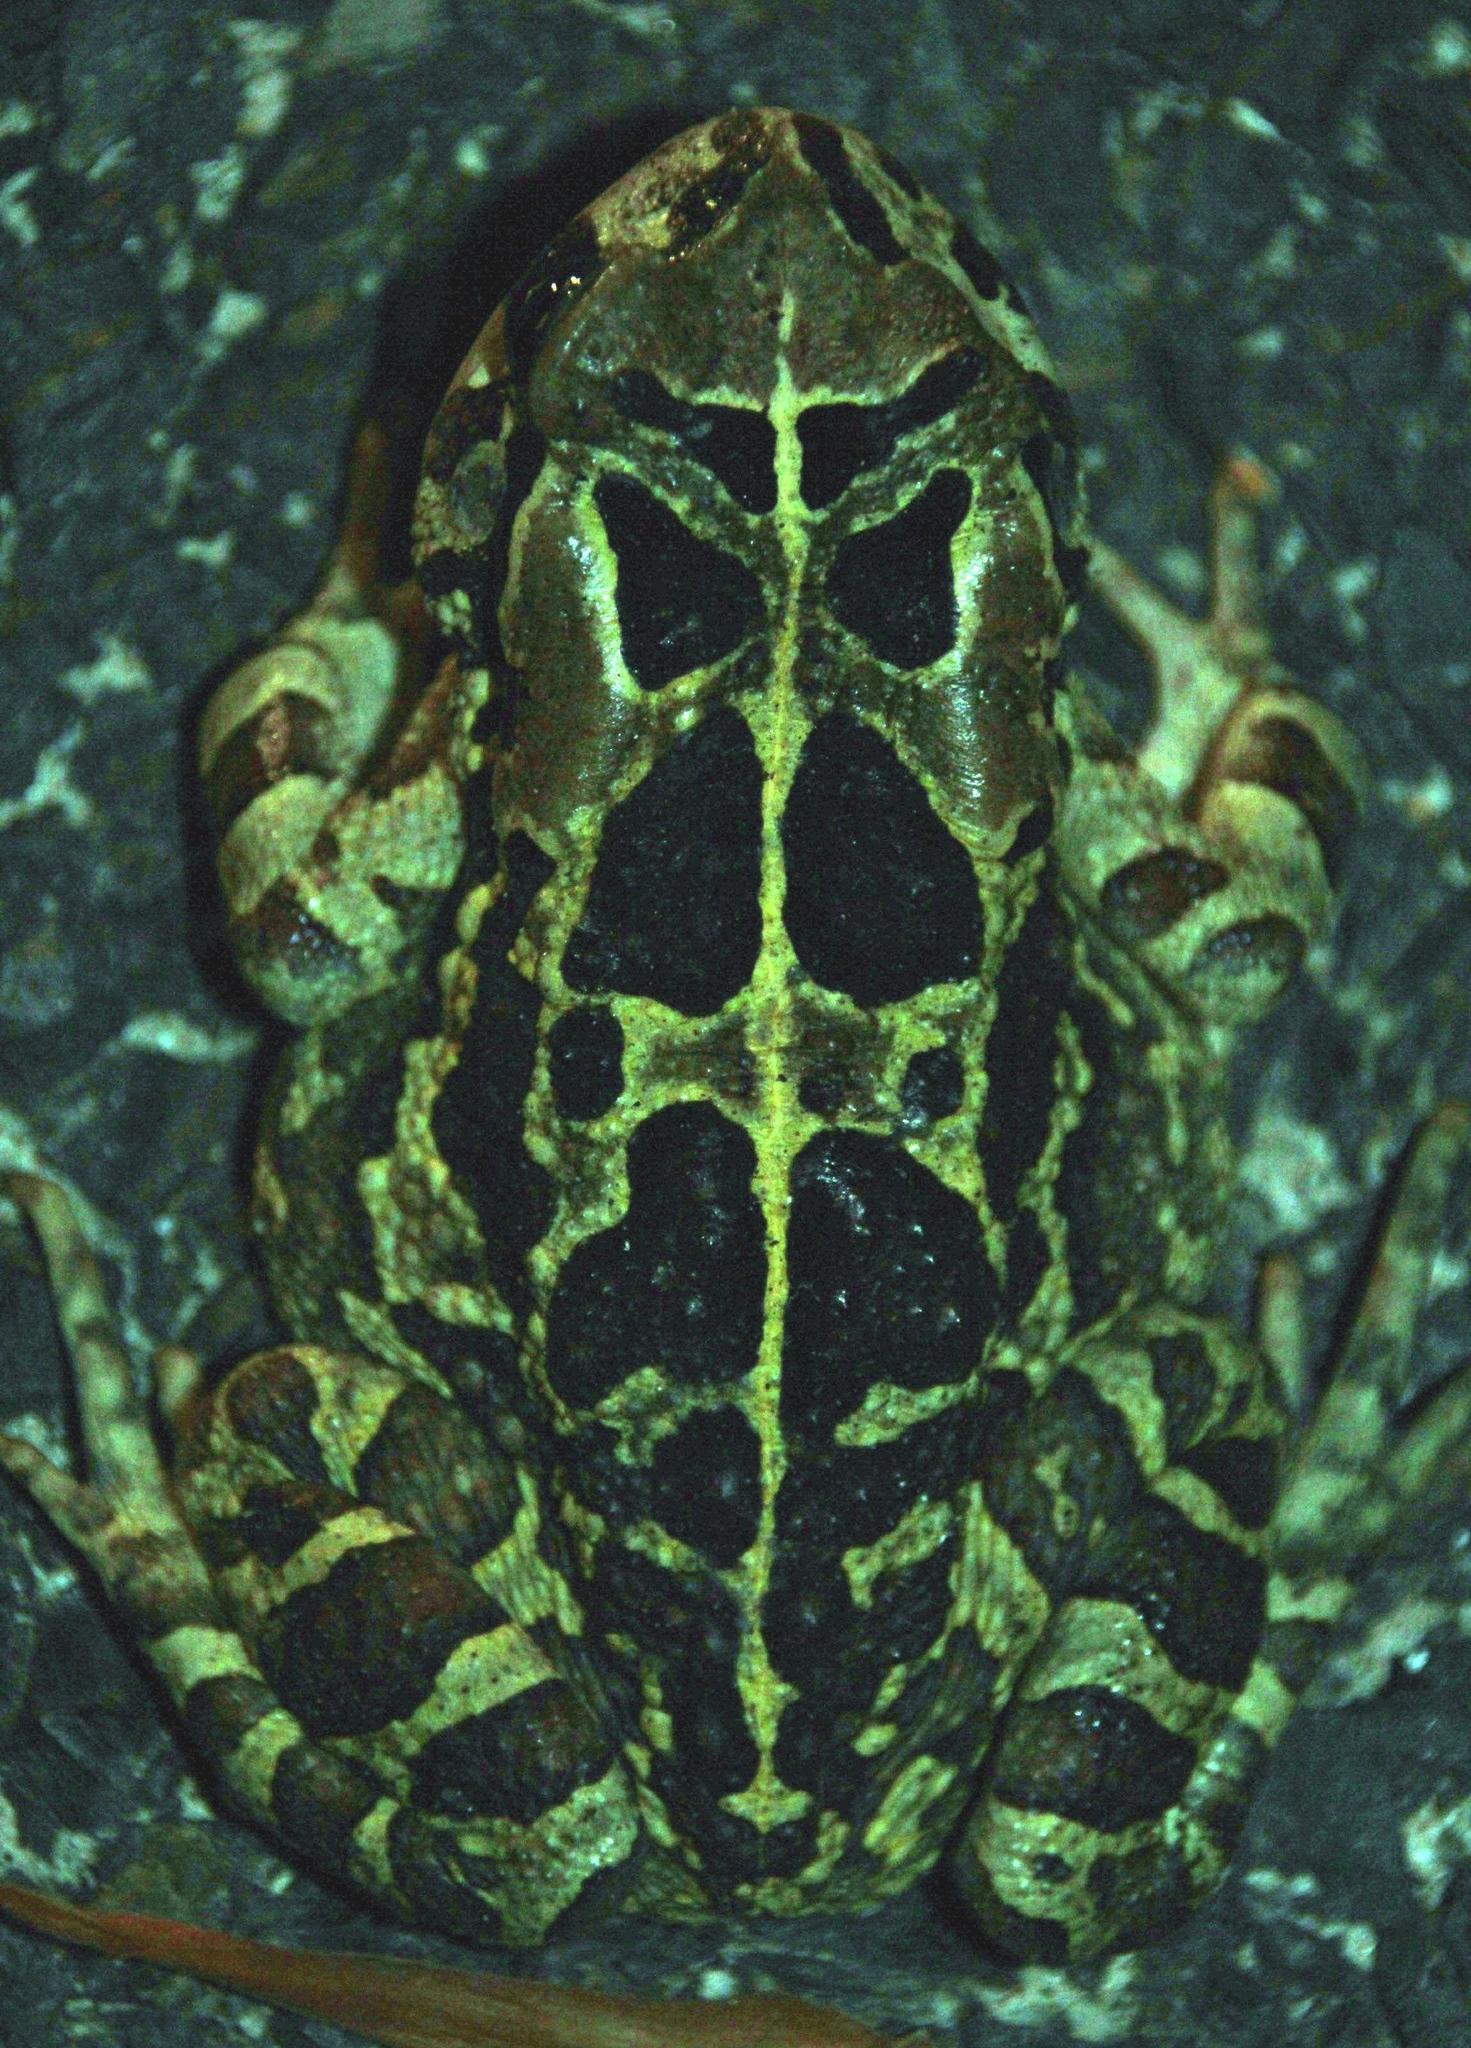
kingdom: Animalia
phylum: Chordata
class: Amphibia
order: Anura
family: Bufonidae
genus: Sclerophrys
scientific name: Sclerophrys pantherina
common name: Panther toad
